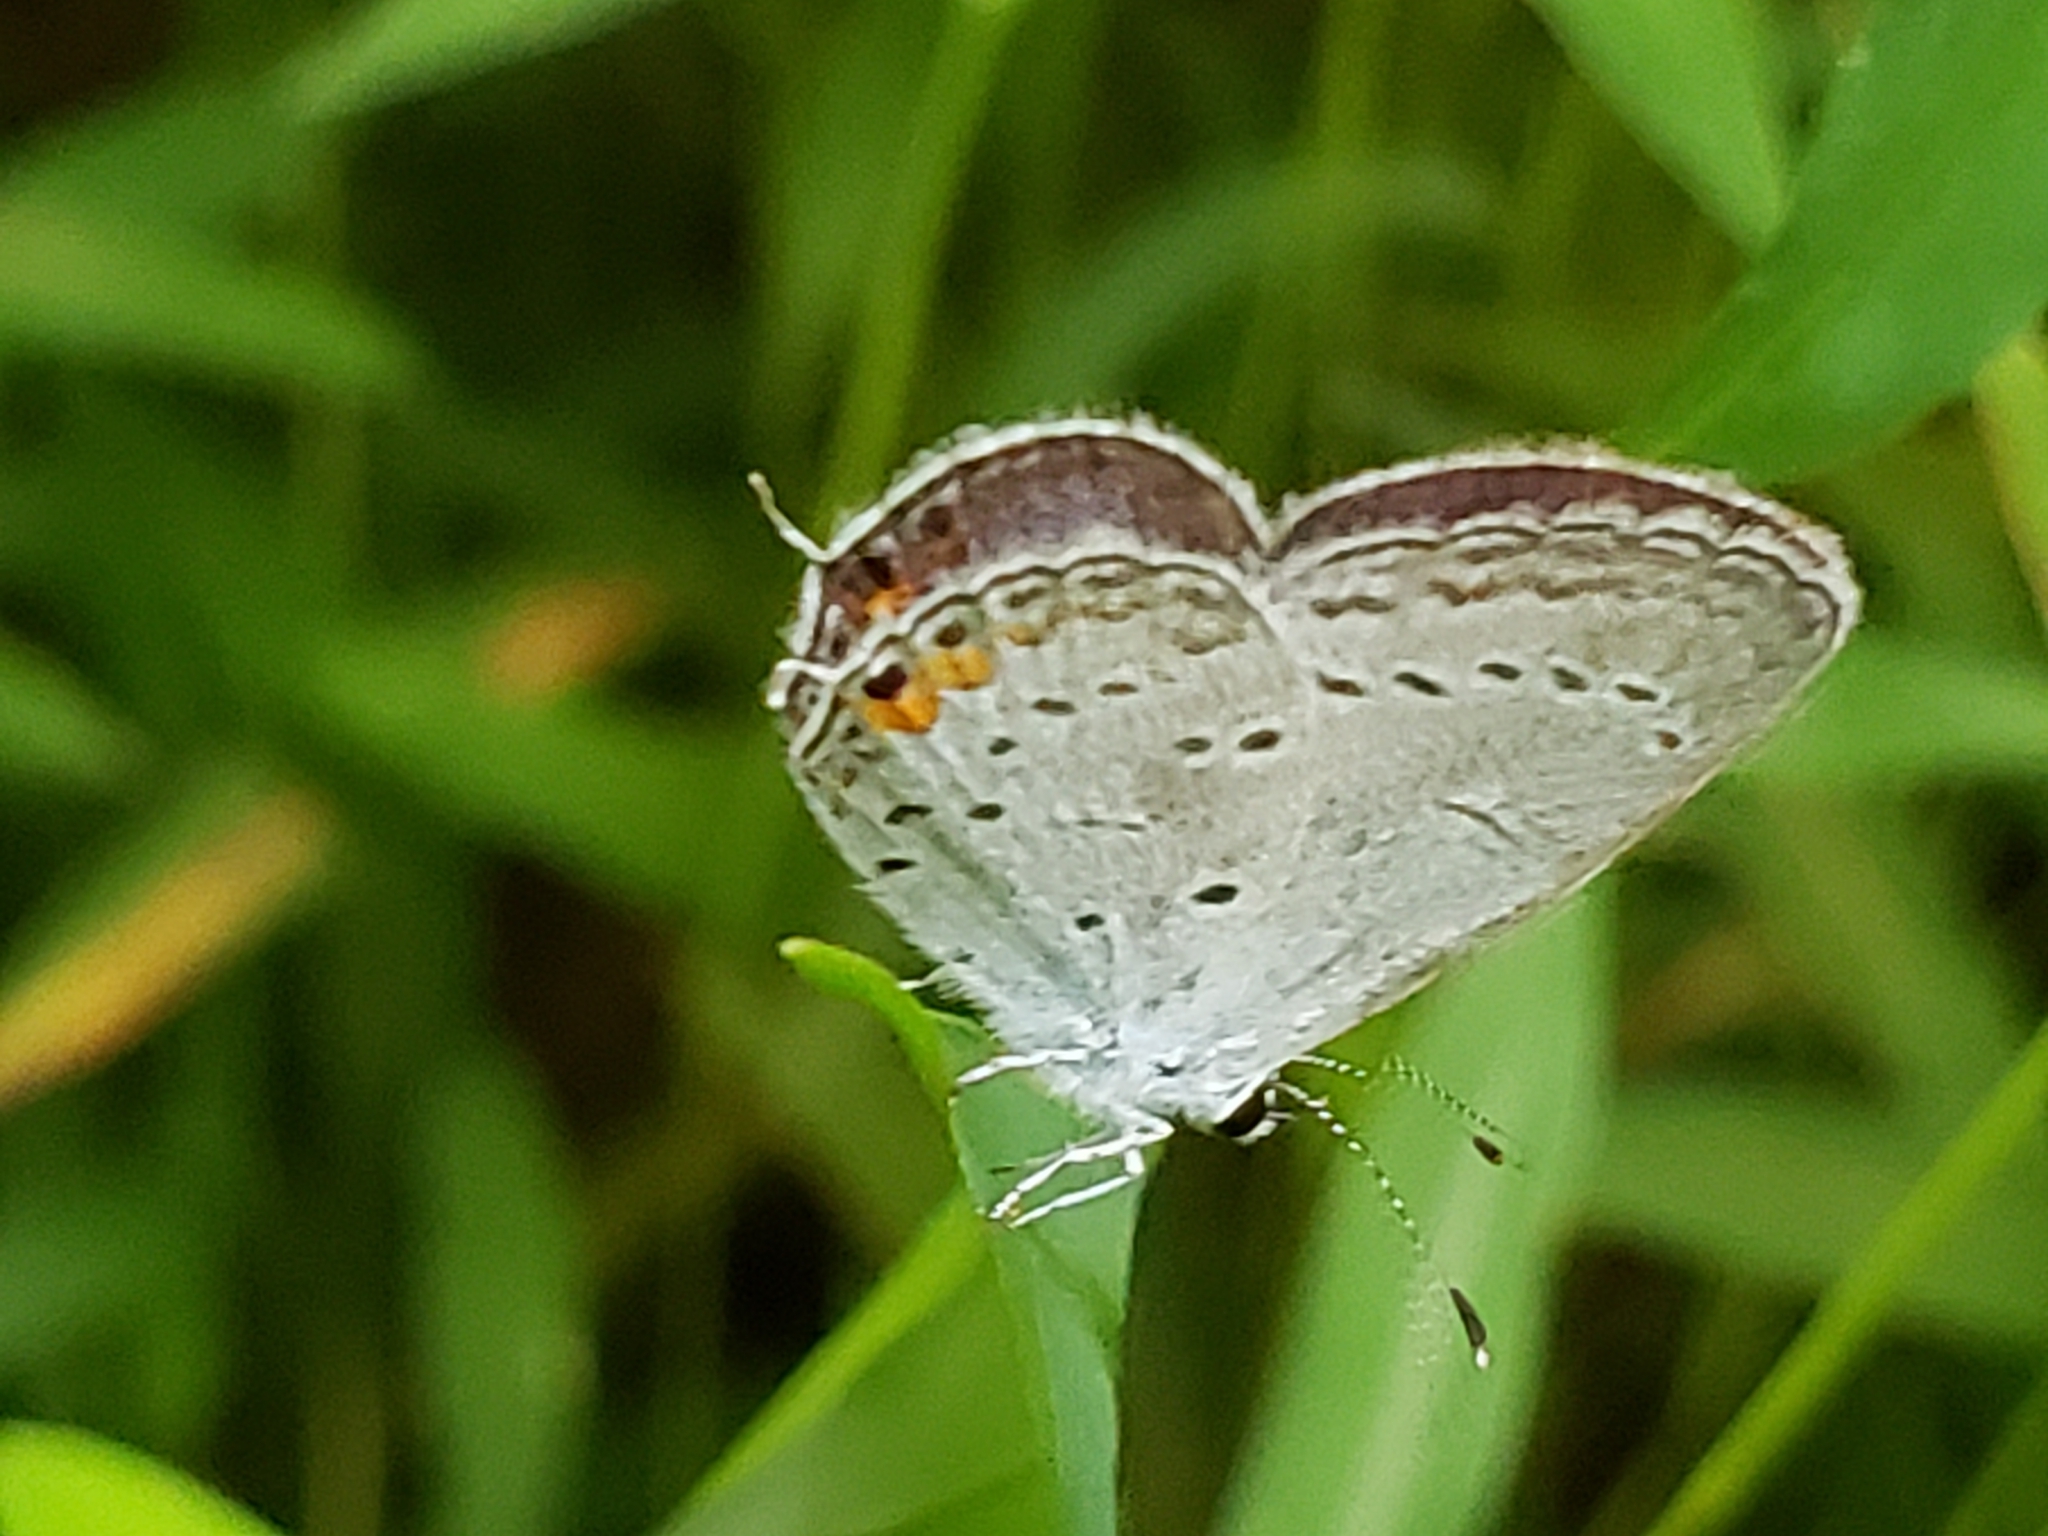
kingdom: Animalia
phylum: Arthropoda
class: Insecta
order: Lepidoptera
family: Lycaenidae
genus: Elkalyce
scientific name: Elkalyce comyntas
